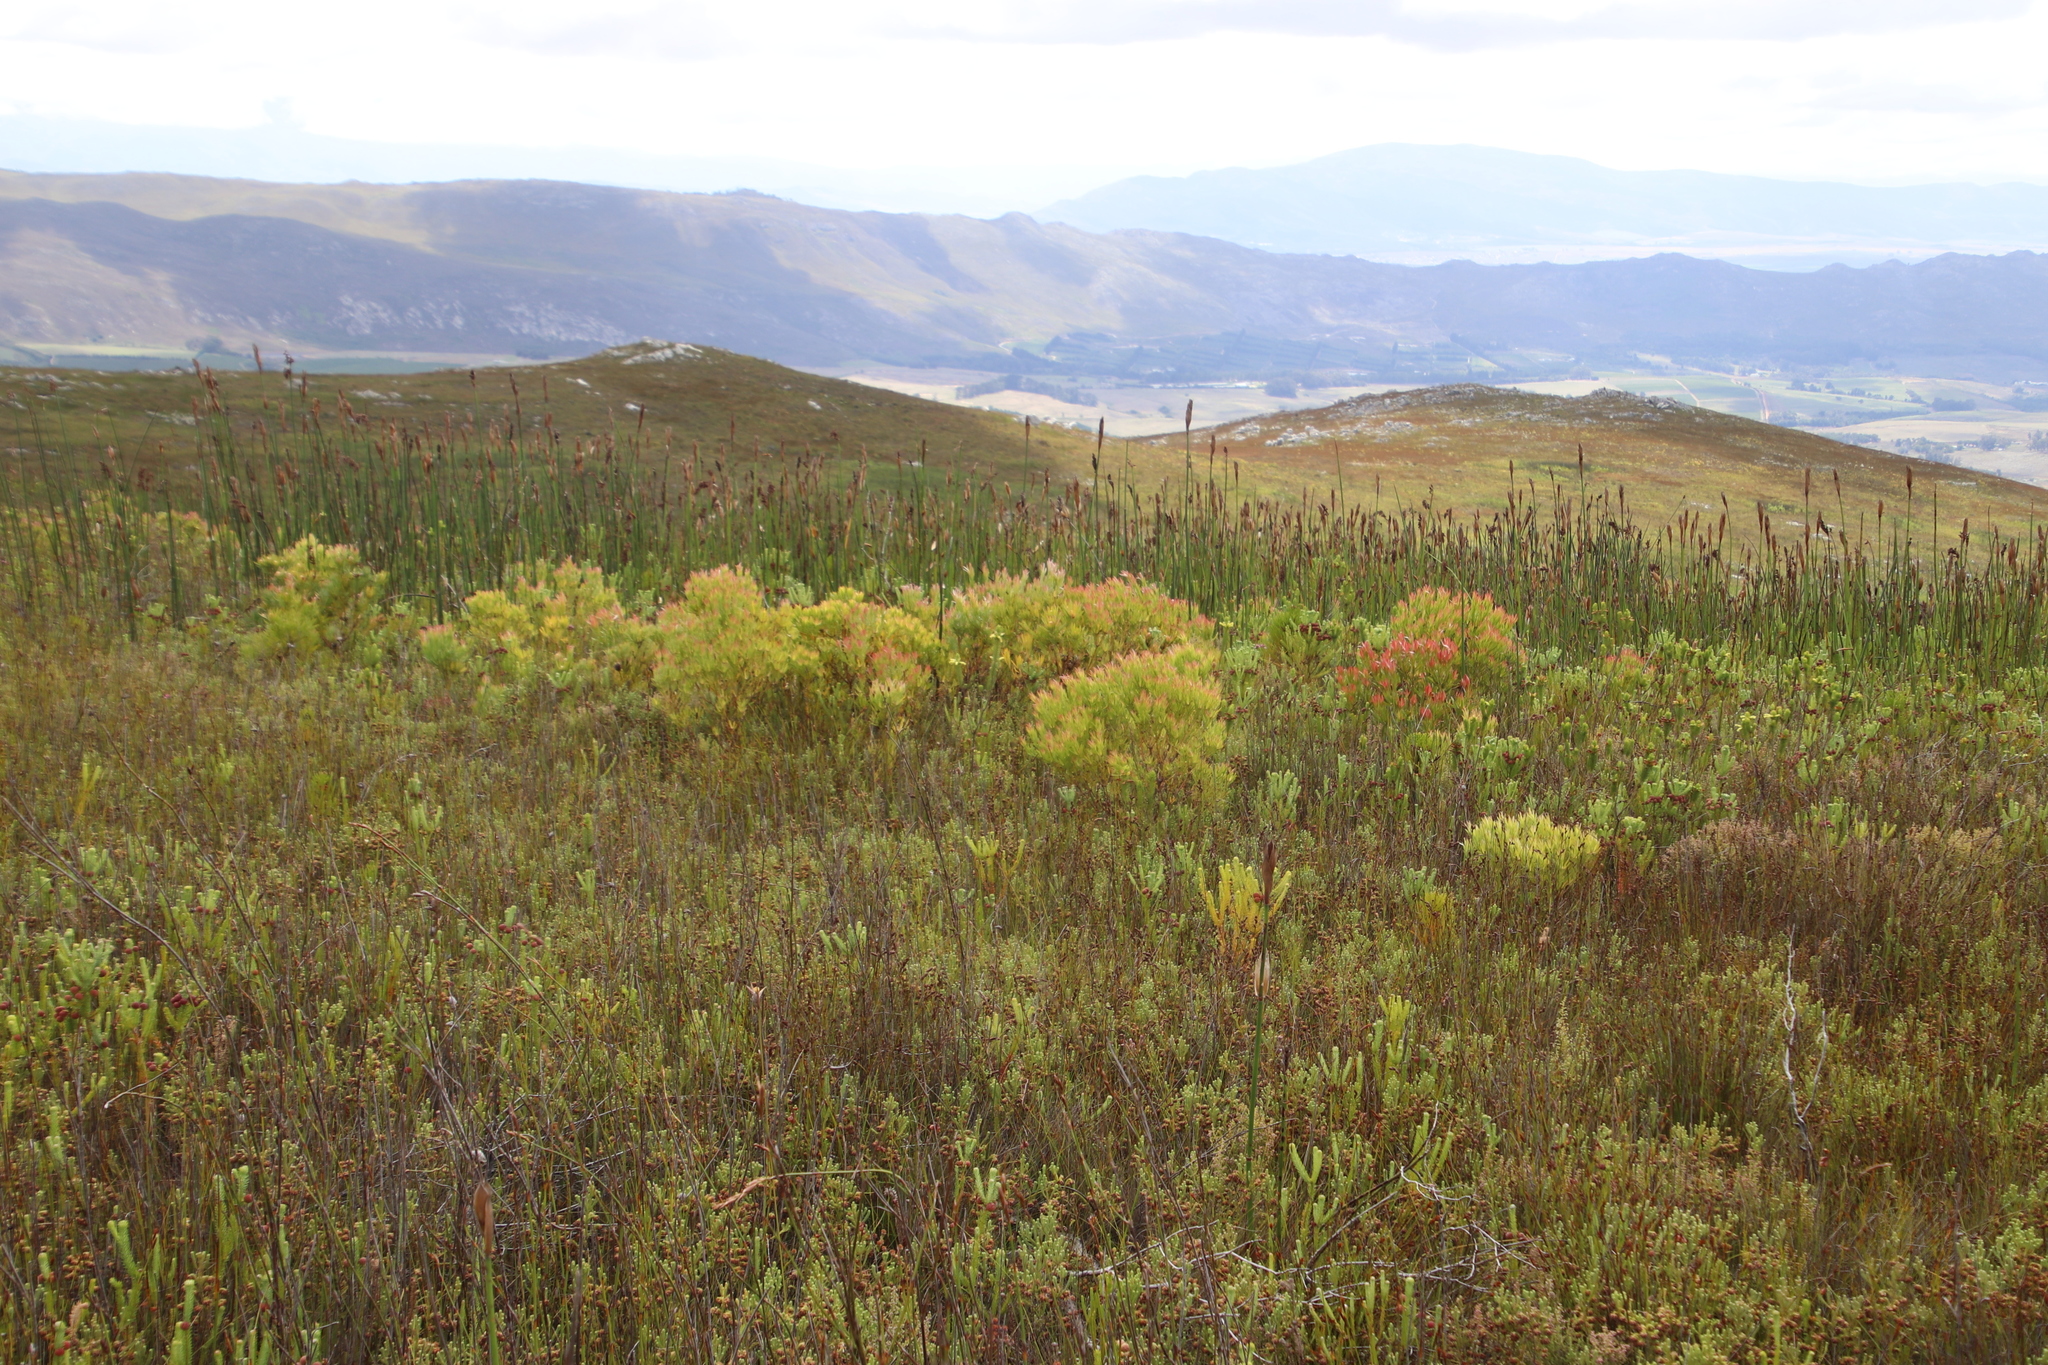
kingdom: Plantae
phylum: Tracheophyta
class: Magnoliopsida
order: Proteales
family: Proteaceae
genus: Leucadendron
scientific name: Leucadendron xanthoconus
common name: Sickle-leaf conebush
